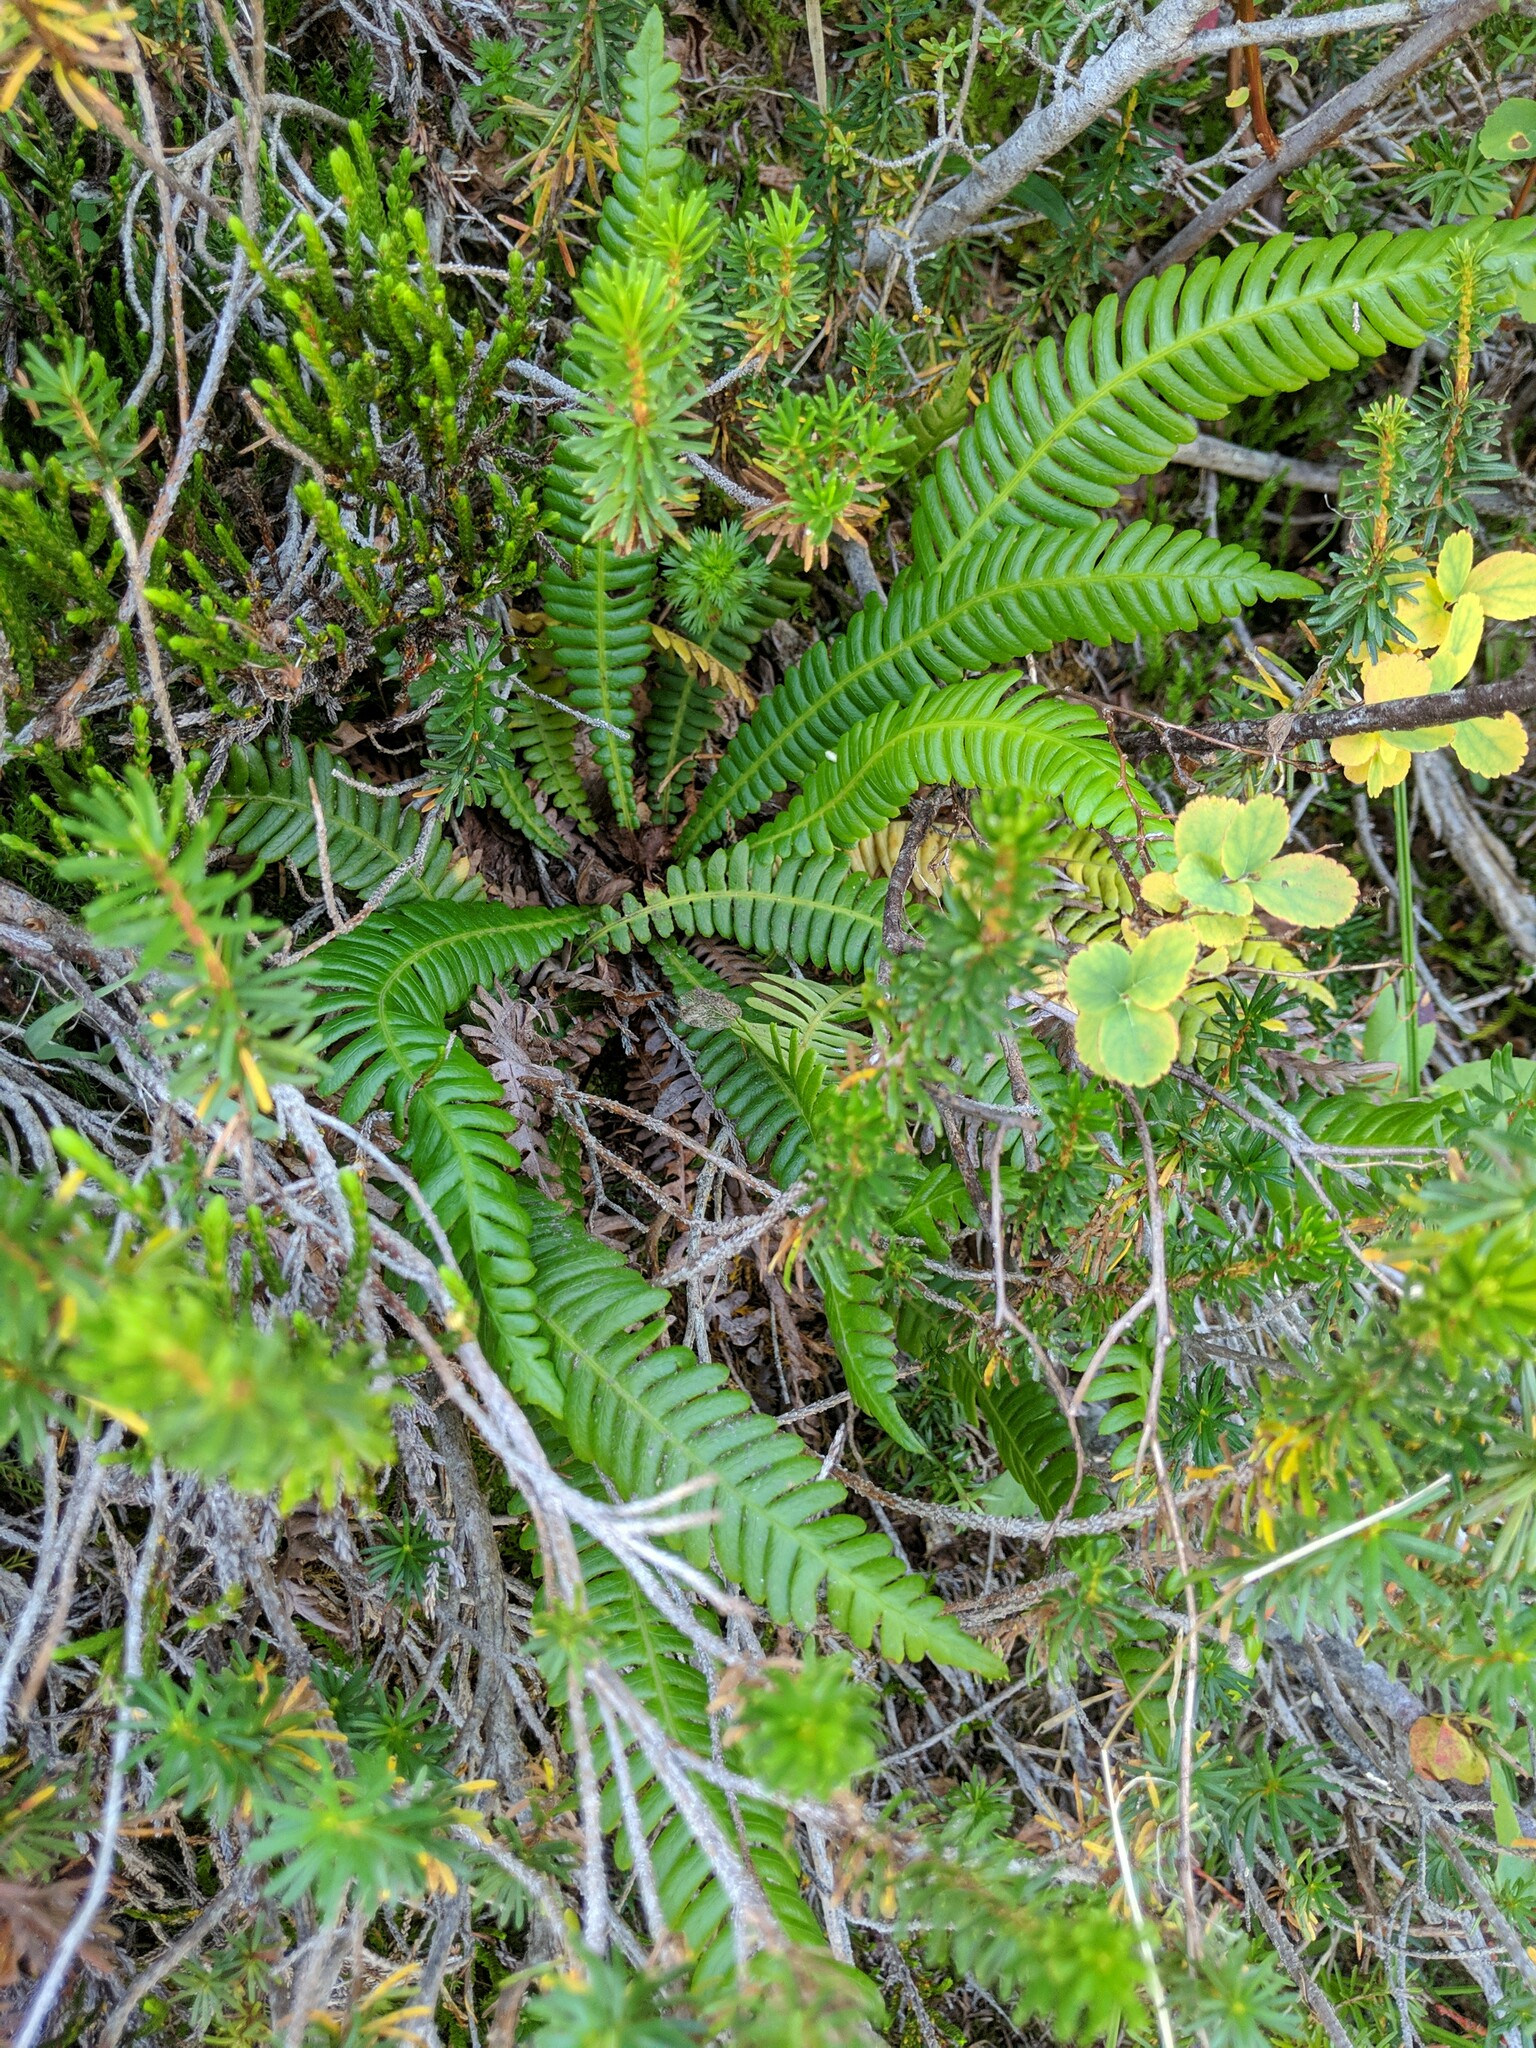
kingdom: Plantae
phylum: Tracheophyta
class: Polypodiopsida
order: Polypodiales
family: Blechnaceae
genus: Struthiopteris
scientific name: Struthiopteris spicant
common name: Deer fern
